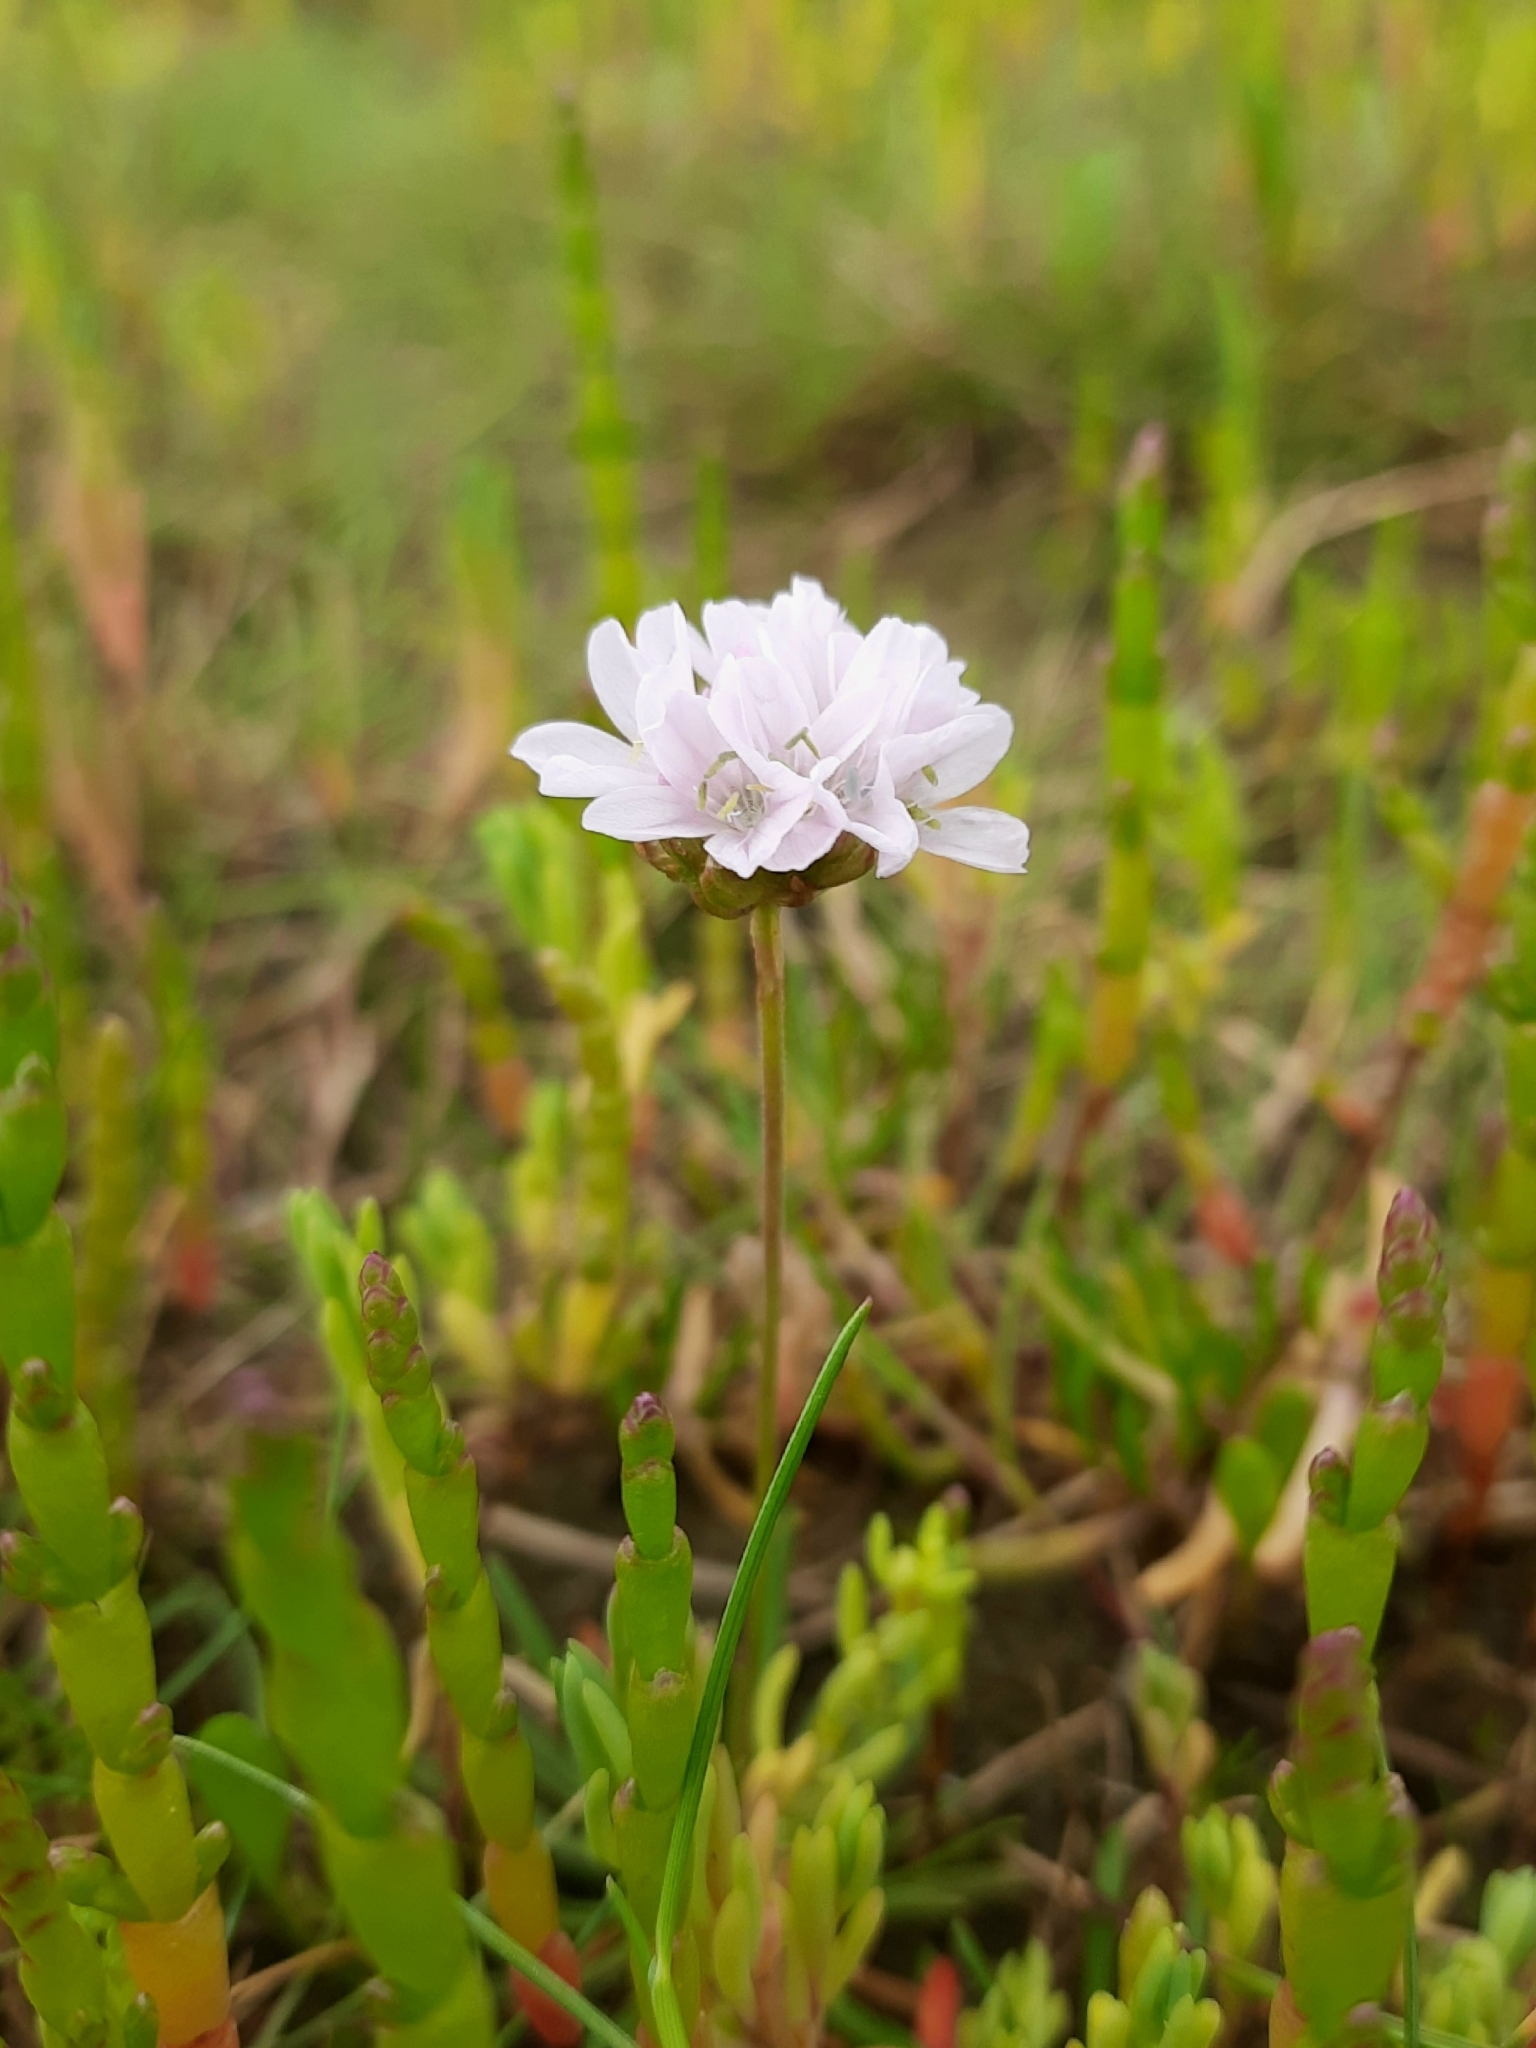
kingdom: Plantae
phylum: Tracheophyta
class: Magnoliopsida
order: Caryophyllales
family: Plumbaginaceae
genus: Armeria
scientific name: Armeria maritima
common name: Thrift
